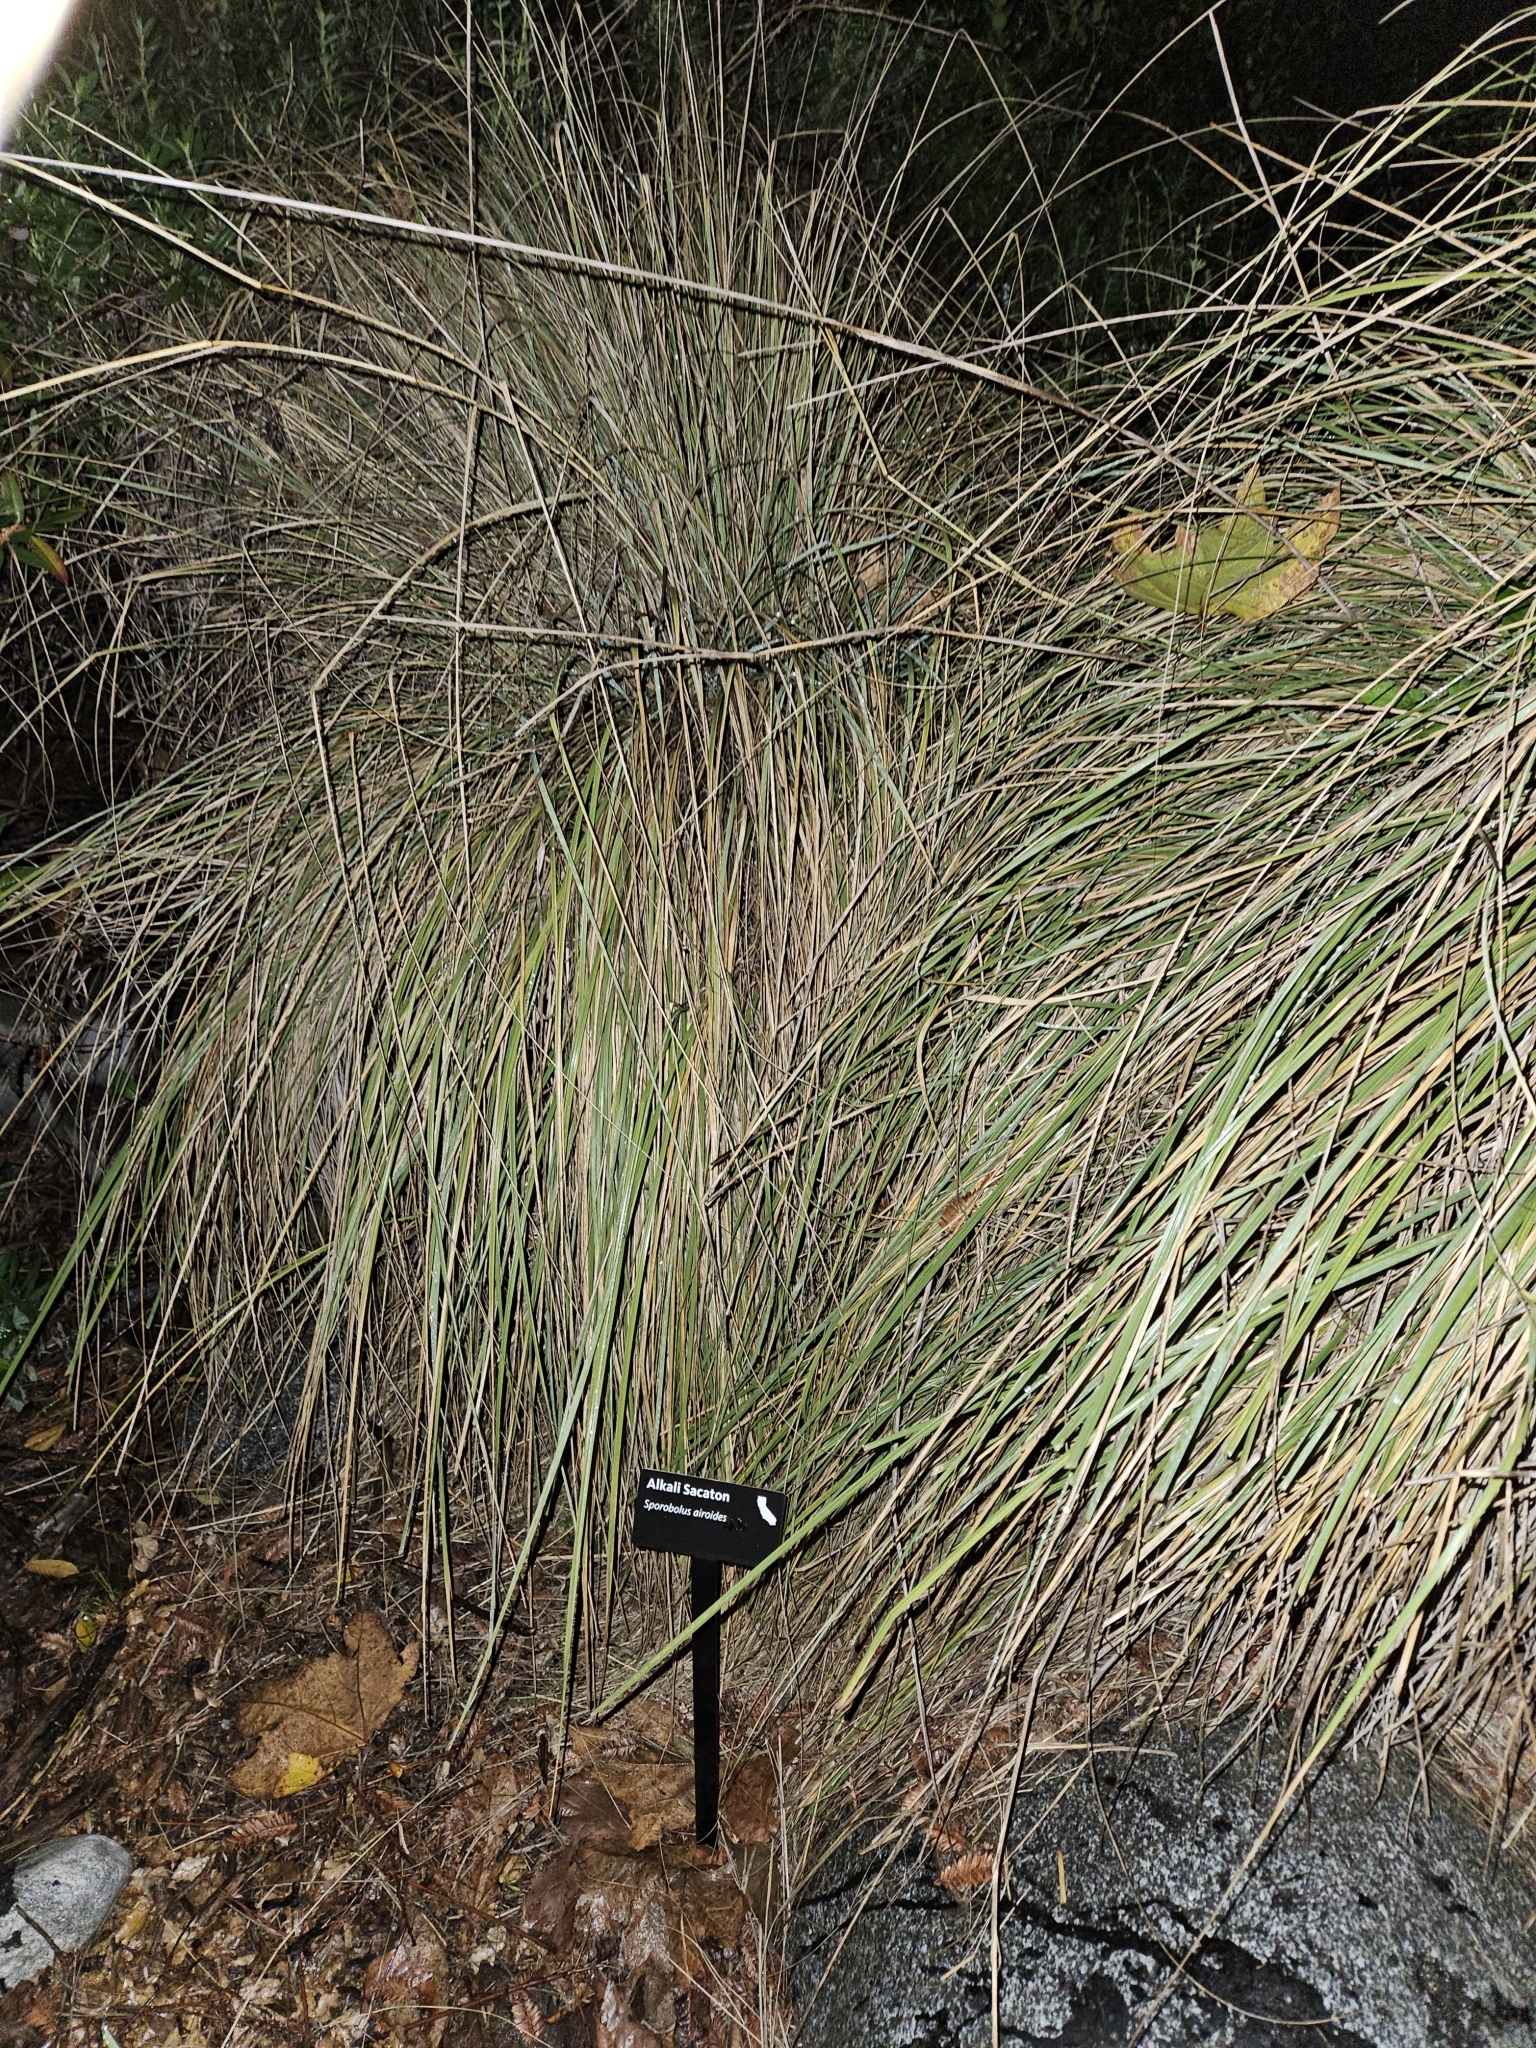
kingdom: Plantae
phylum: Tracheophyta
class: Liliopsida
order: Poales
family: Poaceae
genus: Sporobolus
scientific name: Sporobolus airoides
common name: Alkali sacaton
